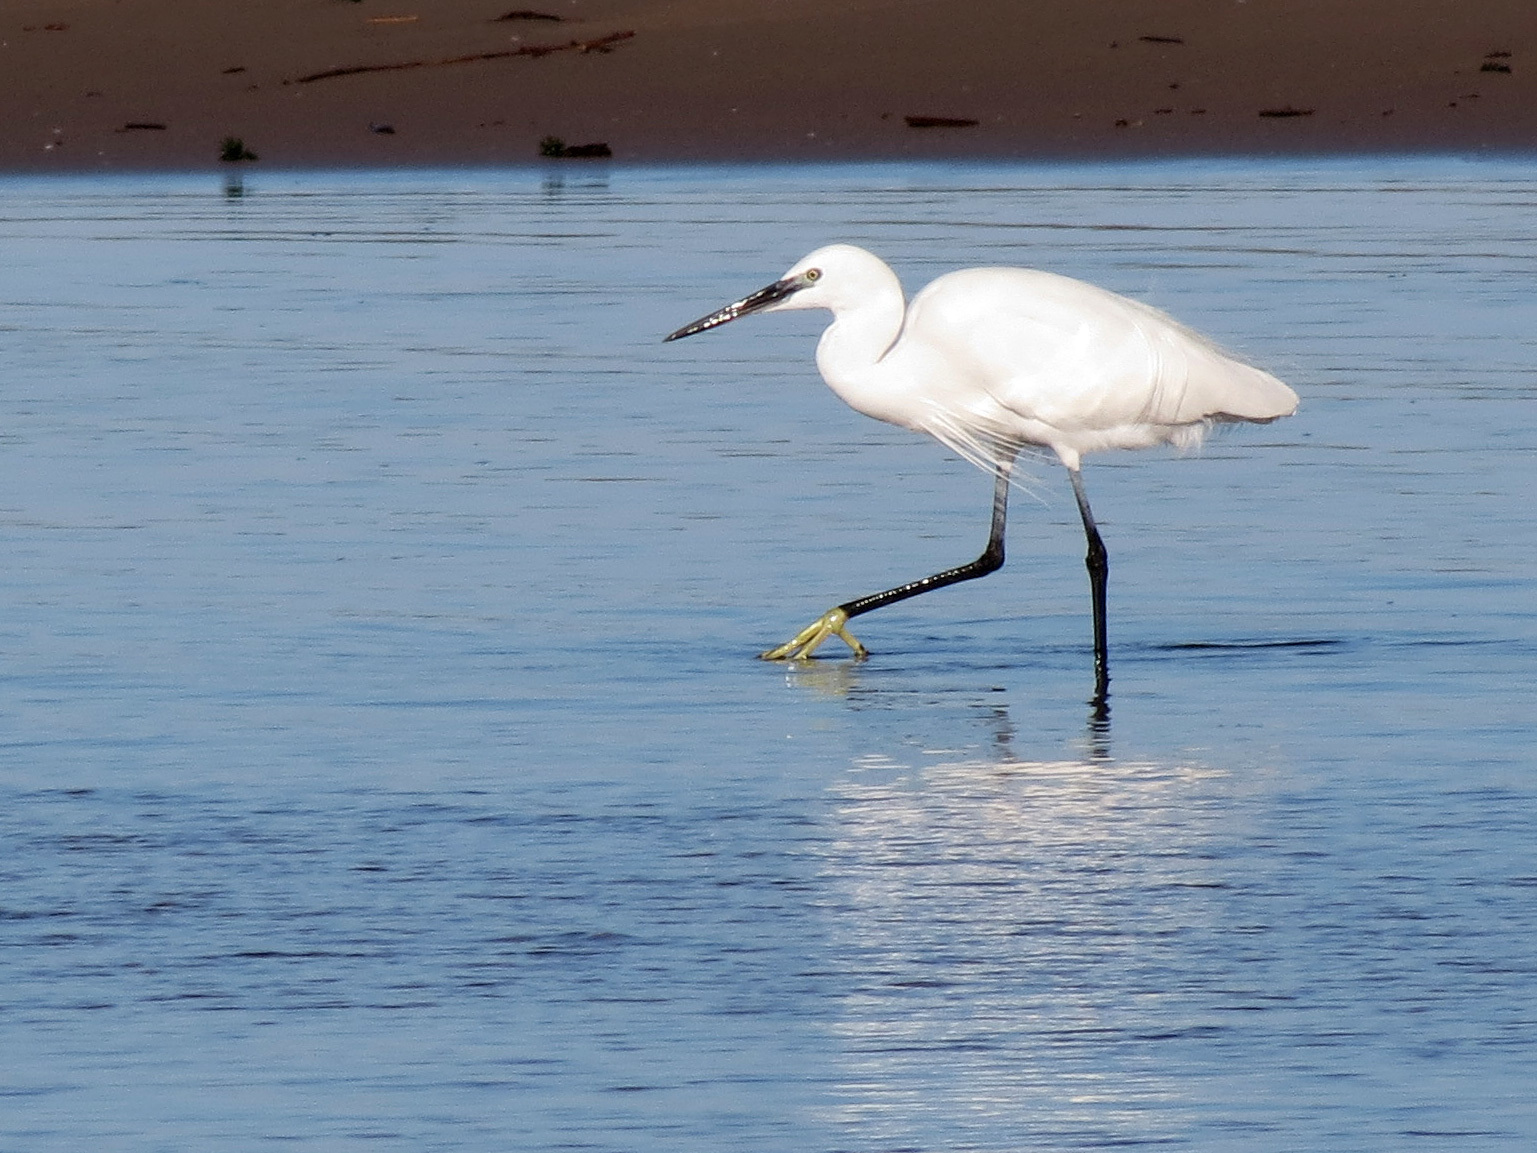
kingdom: Animalia
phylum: Chordata
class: Aves
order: Pelecaniformes
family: Ardeidae
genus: Egretta
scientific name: Egretta garzetta
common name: Little egret
